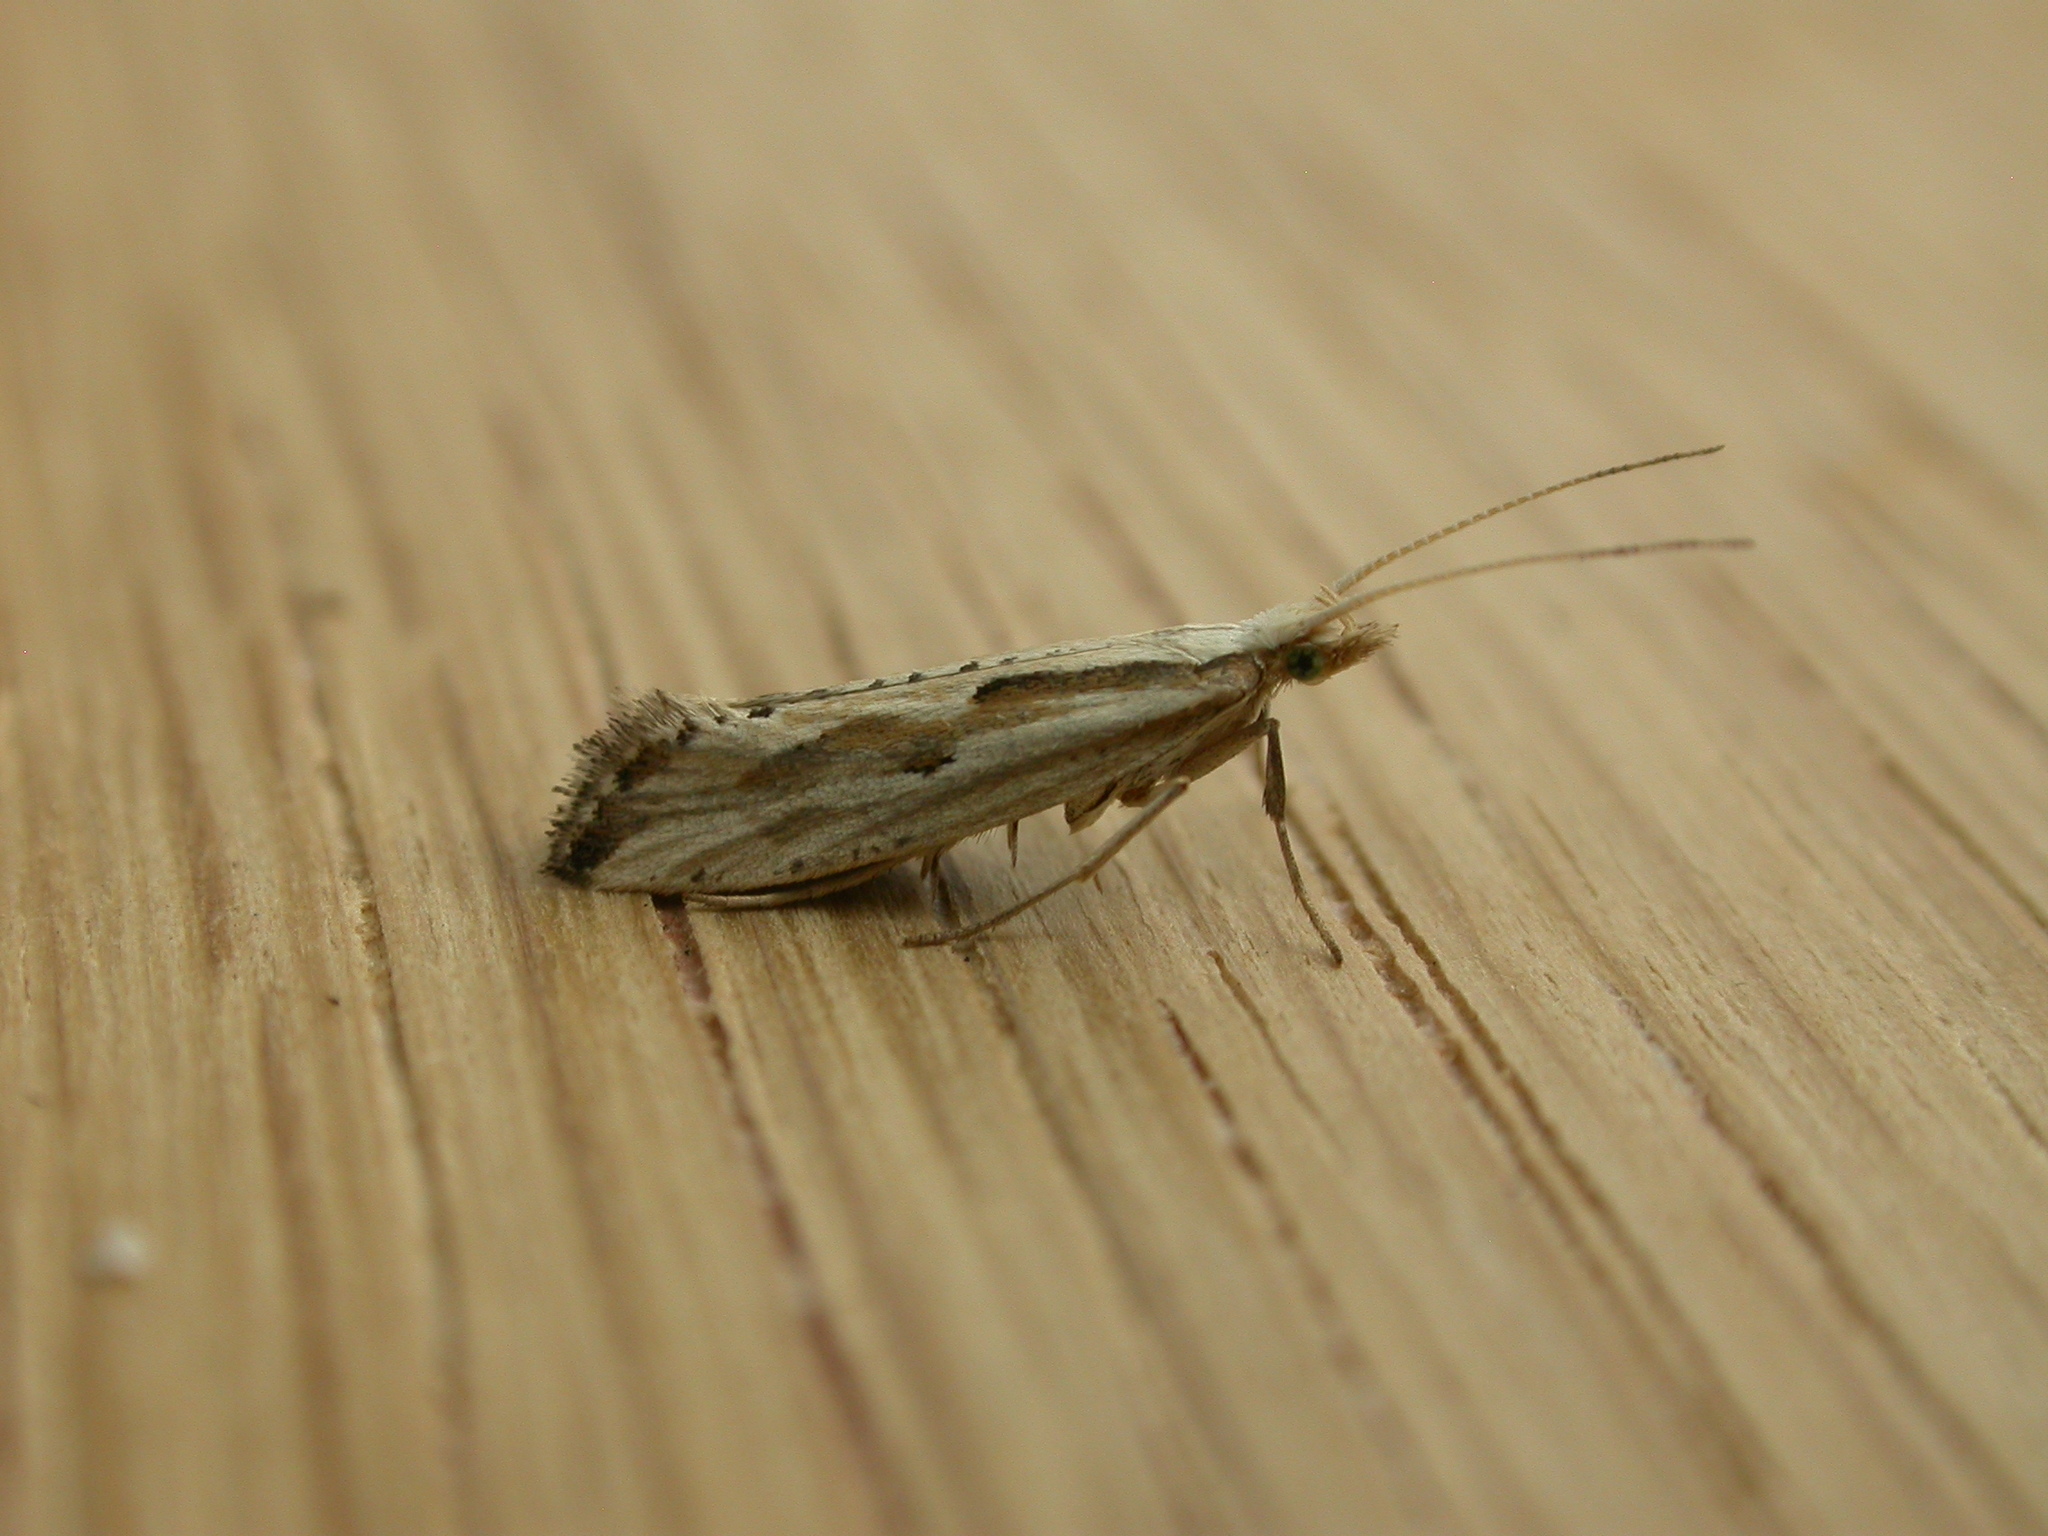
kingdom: Animalia
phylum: Arthropoda
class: Insecta
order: Lepidoptera
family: Plutellidae
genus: Plutella
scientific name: Plutella porrectella
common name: Dame's rocket moth
